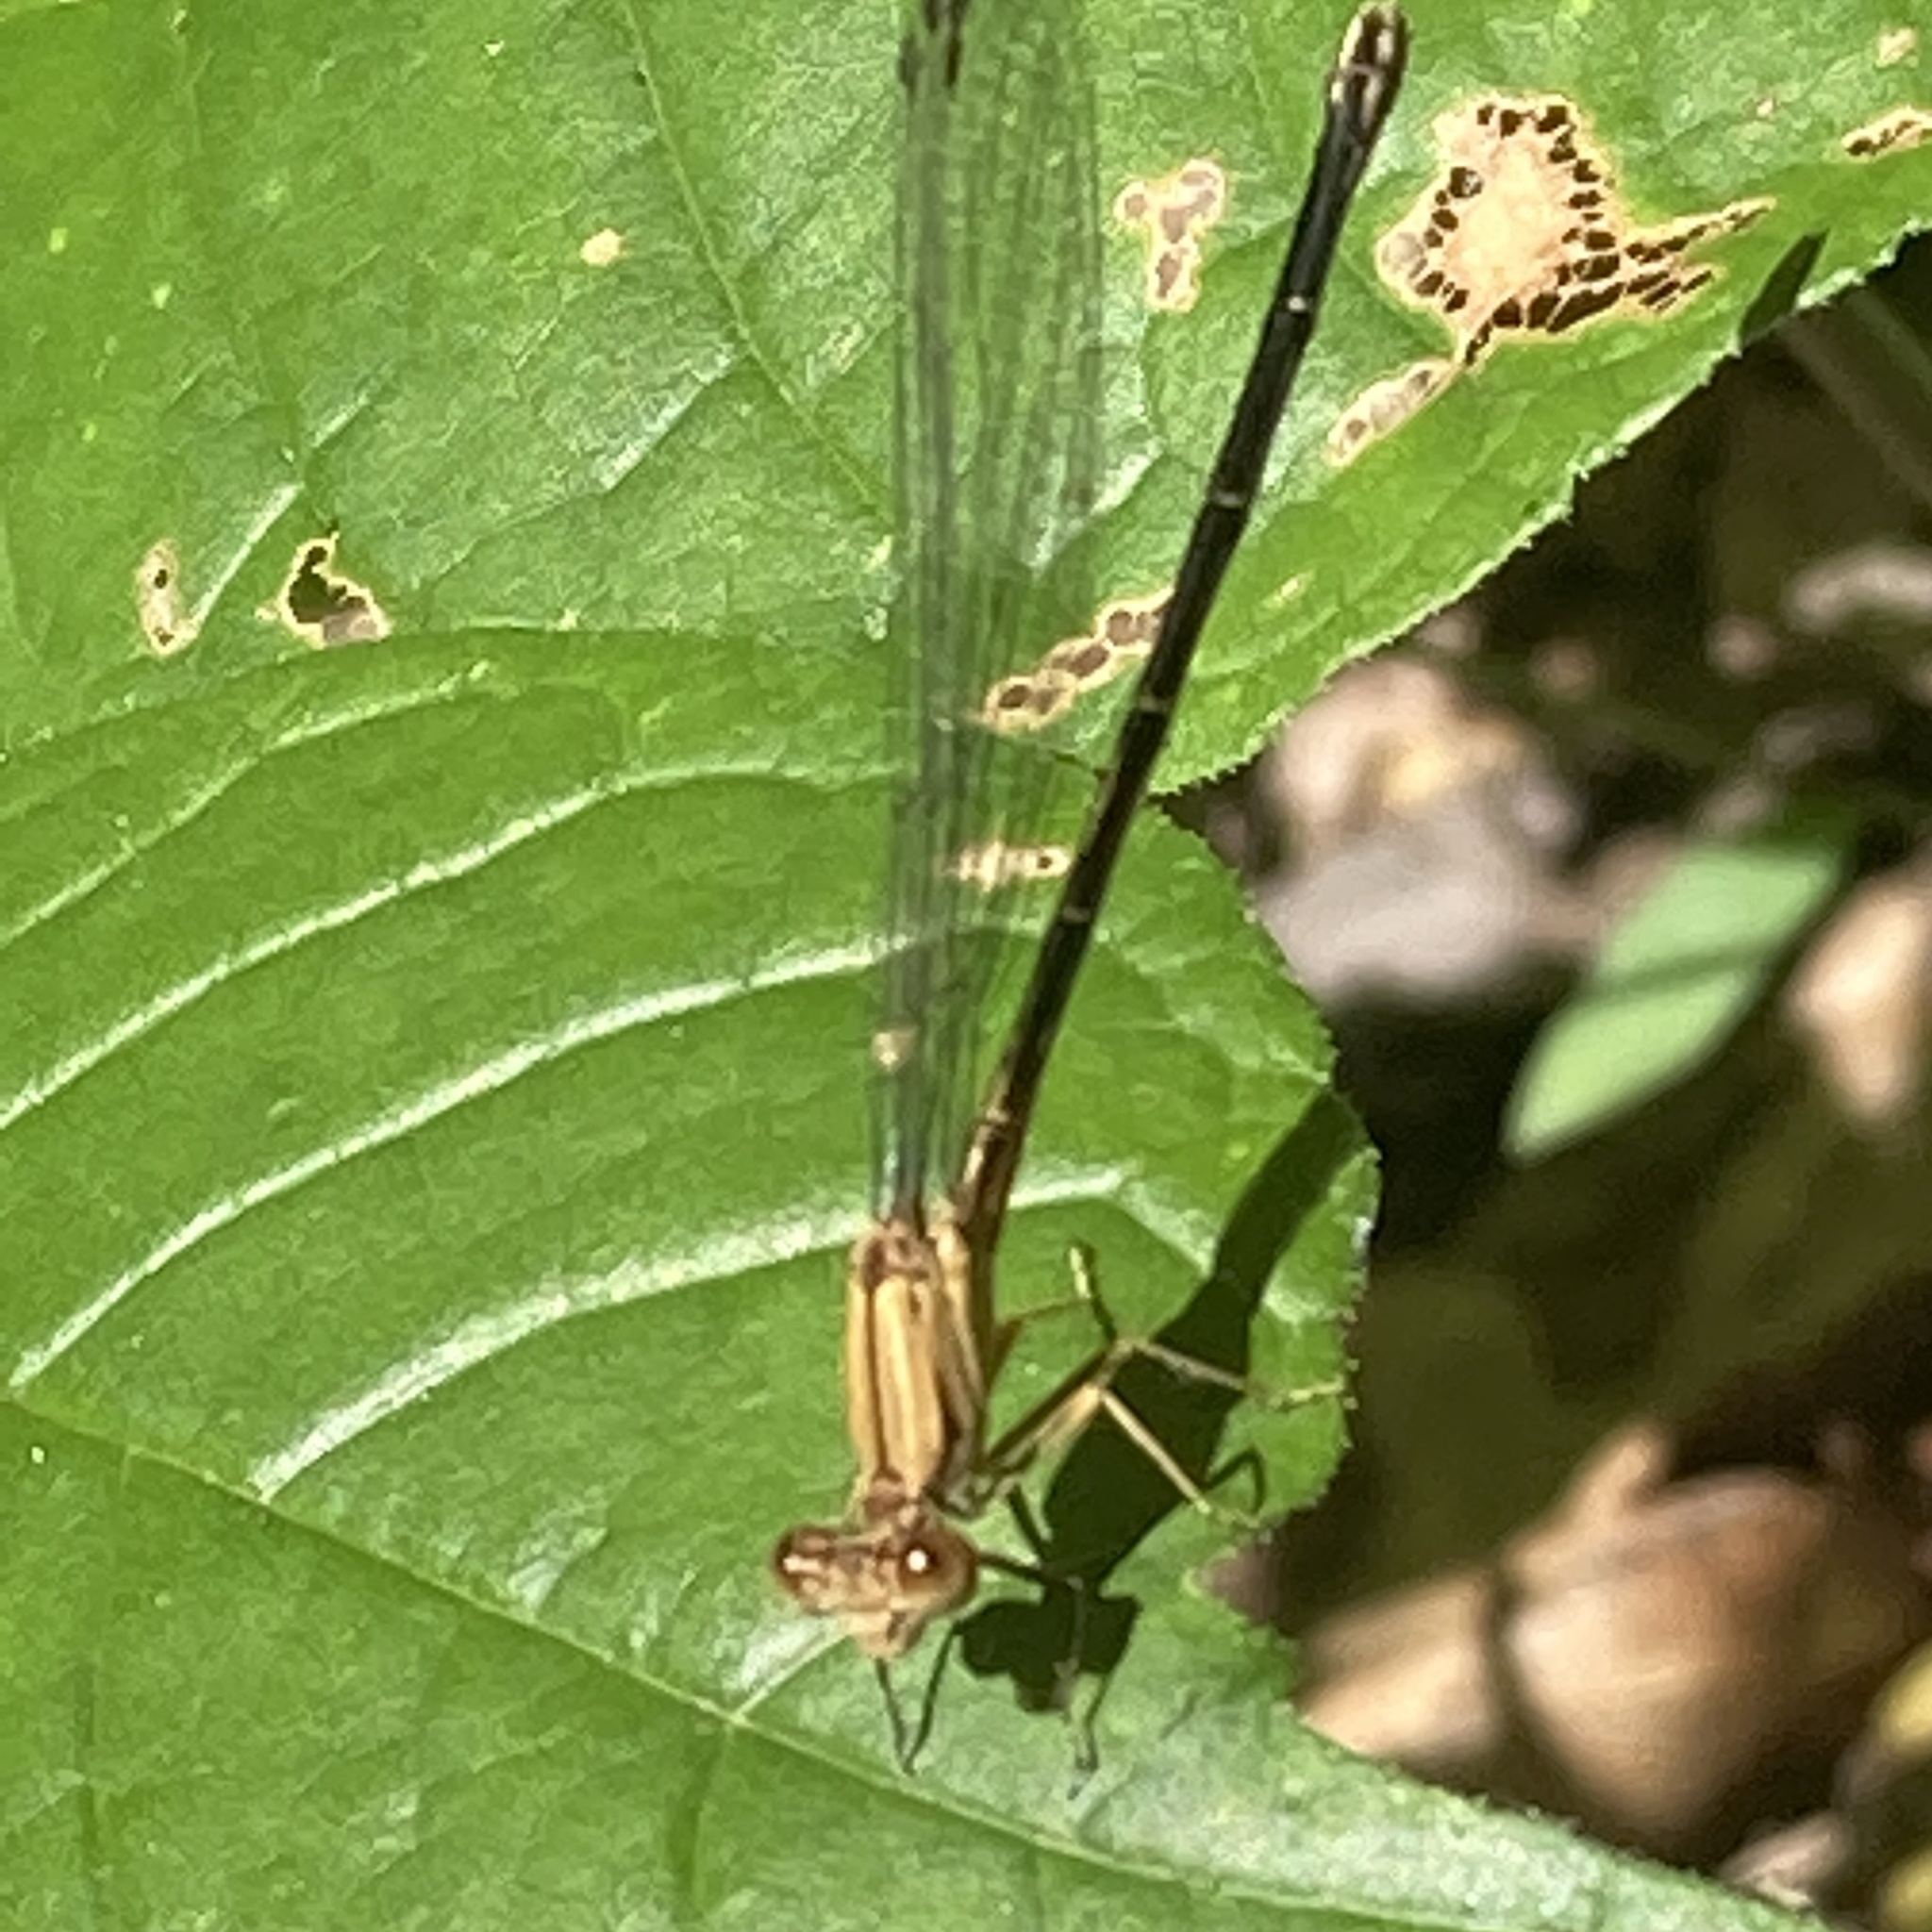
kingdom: Animalia
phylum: Arthropoda
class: Insecta
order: Odonata
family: Coenagrionidae
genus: Argia
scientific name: Argia moesta
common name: Powdered dancer
